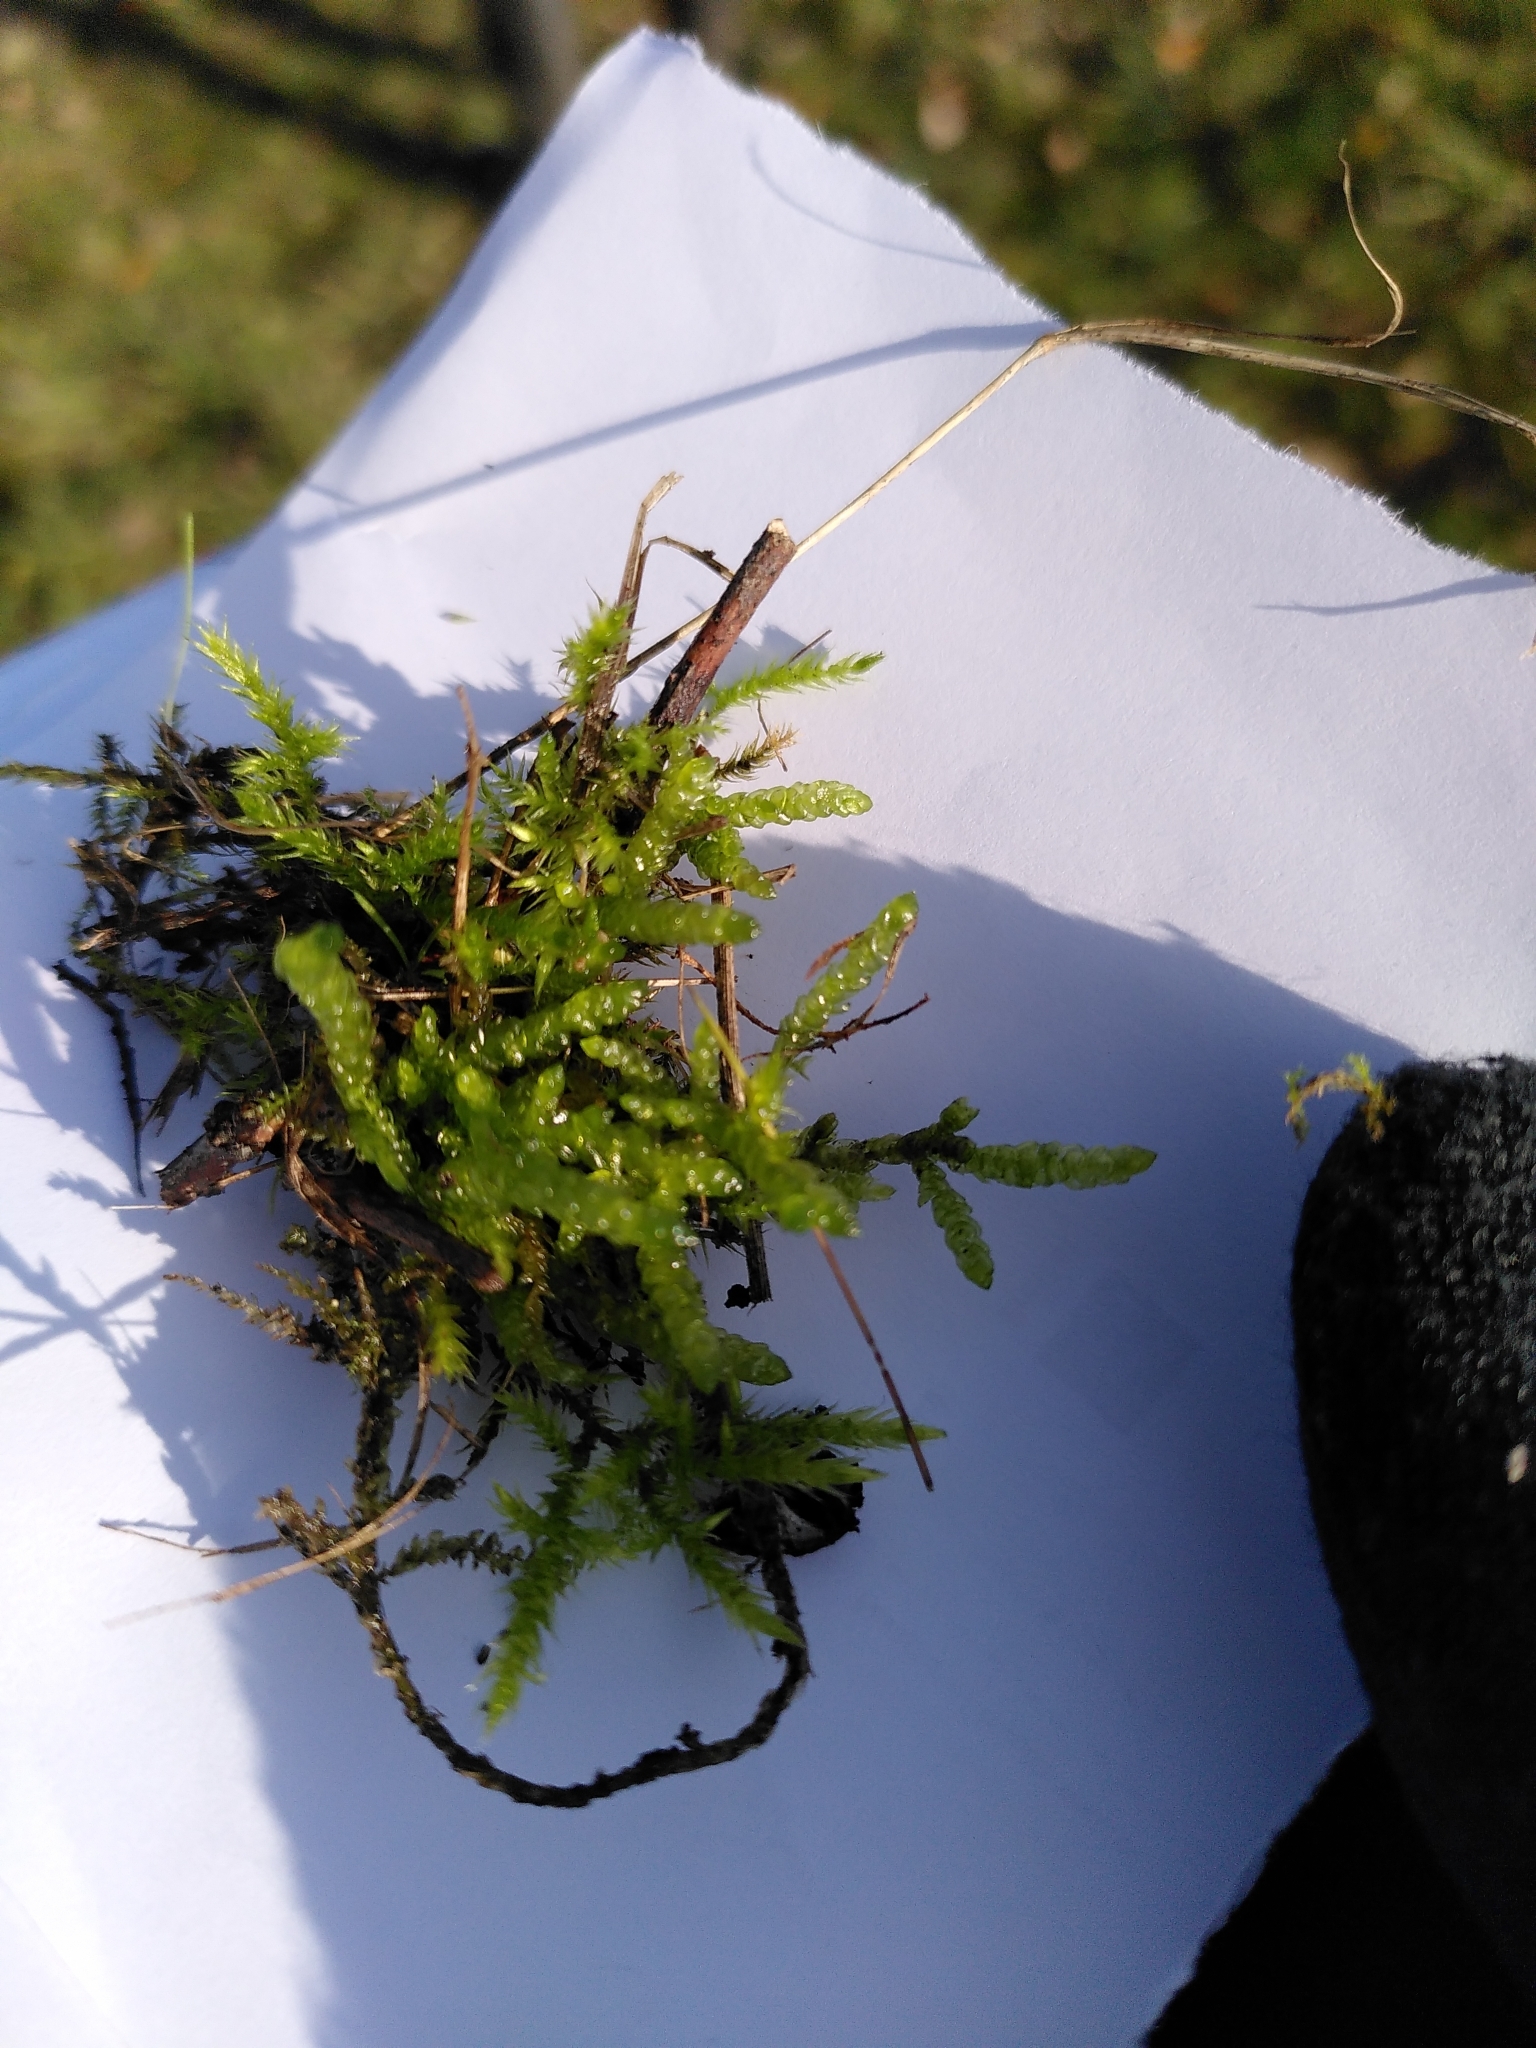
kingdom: Plantae
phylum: Bryophyta
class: Bryopsida
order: Hypnales
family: Brachytheciaceae
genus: Pseudoscleropodium
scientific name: Pseudoscleropodium purum
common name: Neat feather-moss
